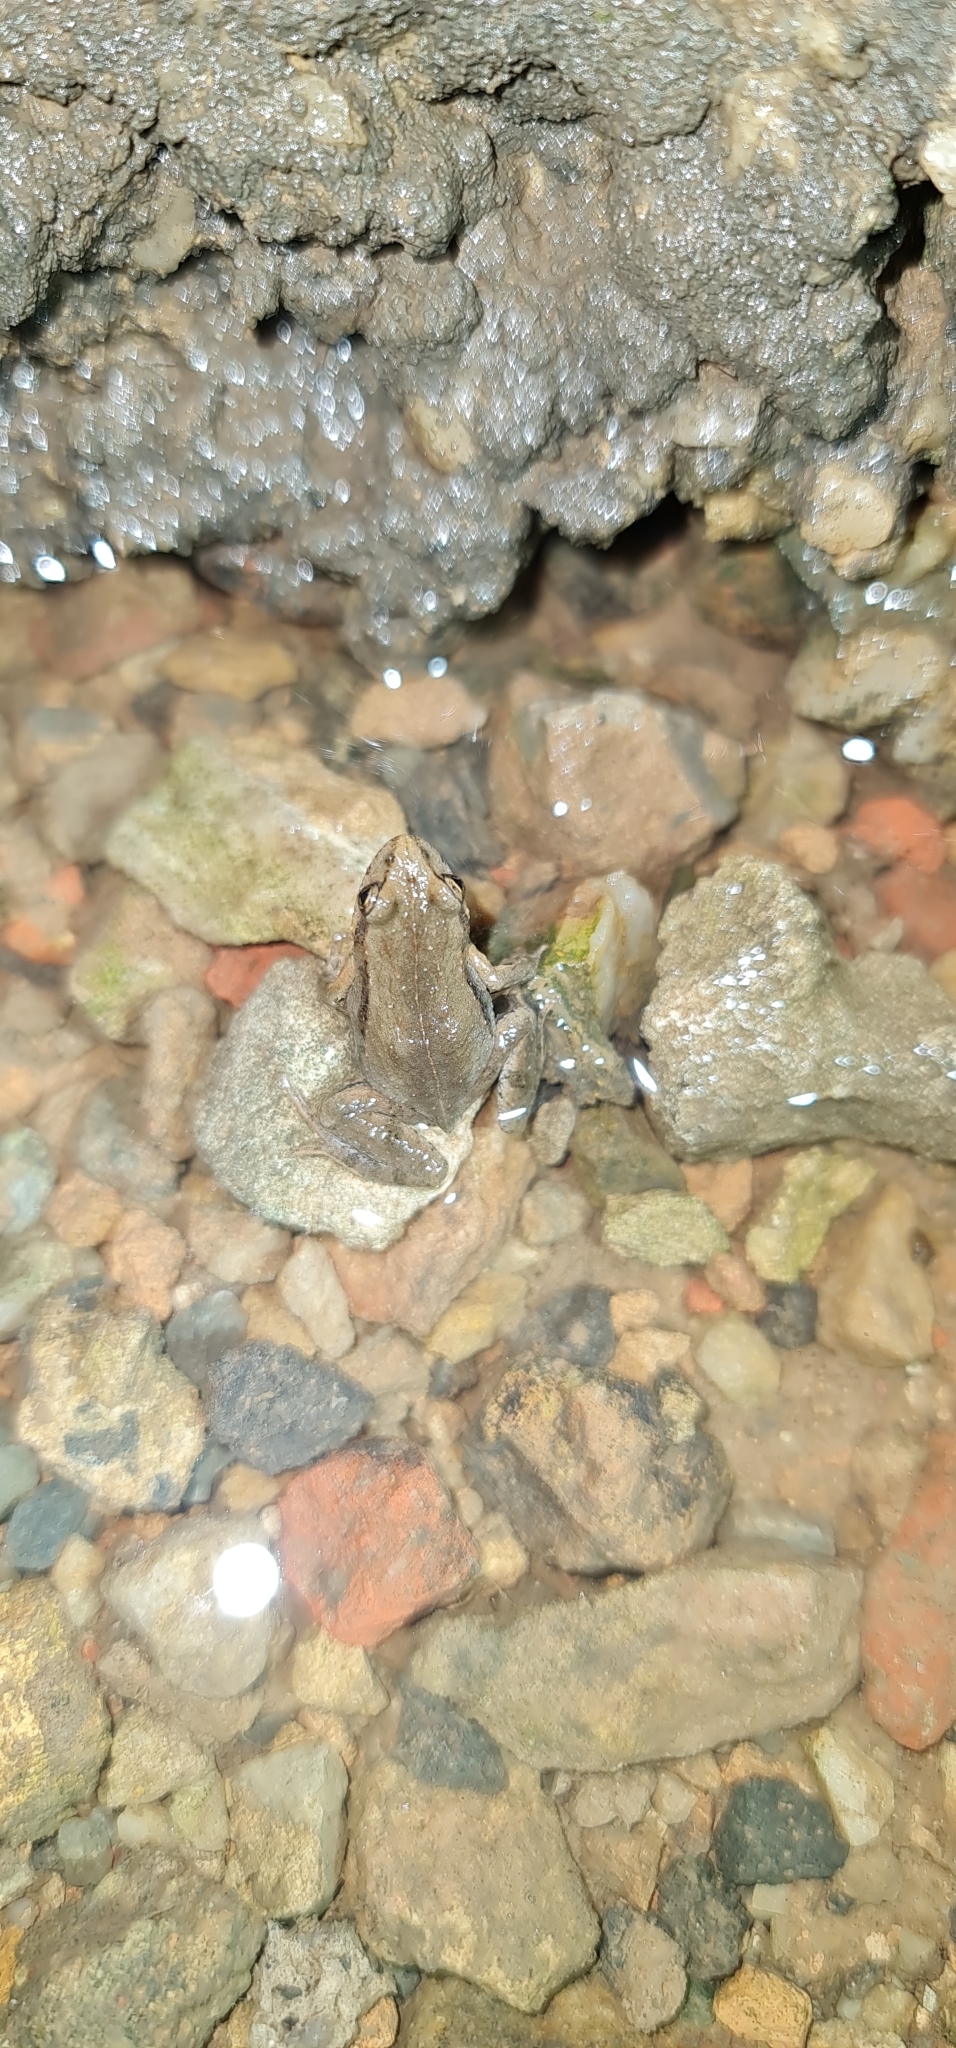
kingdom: Animalia
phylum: Chordata
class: Amphibia
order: Anura
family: Myobatrachidae
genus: Crinia
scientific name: Crinia signifera
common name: Brown froglet
